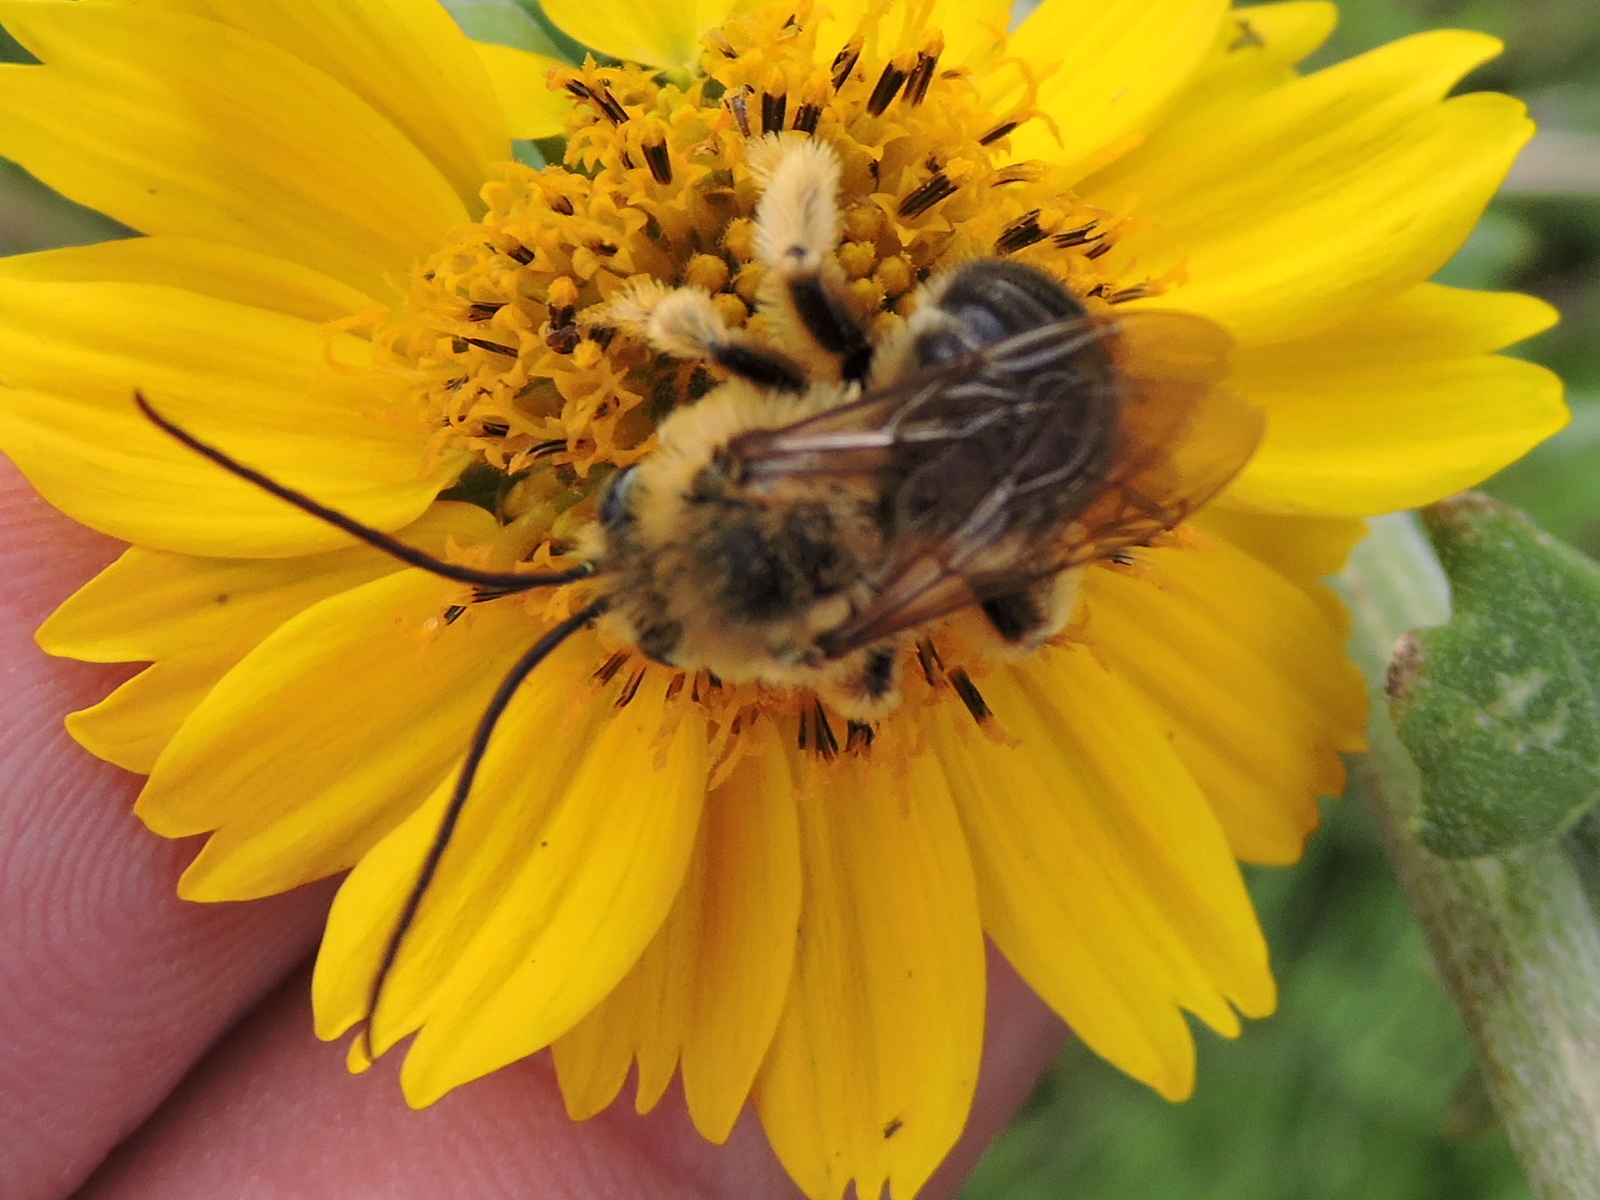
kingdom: Animalia
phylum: Arthropoda
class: Insecta
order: Hymenoptera
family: Apidae
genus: Melissodes
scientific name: Melissodes dentiventris
